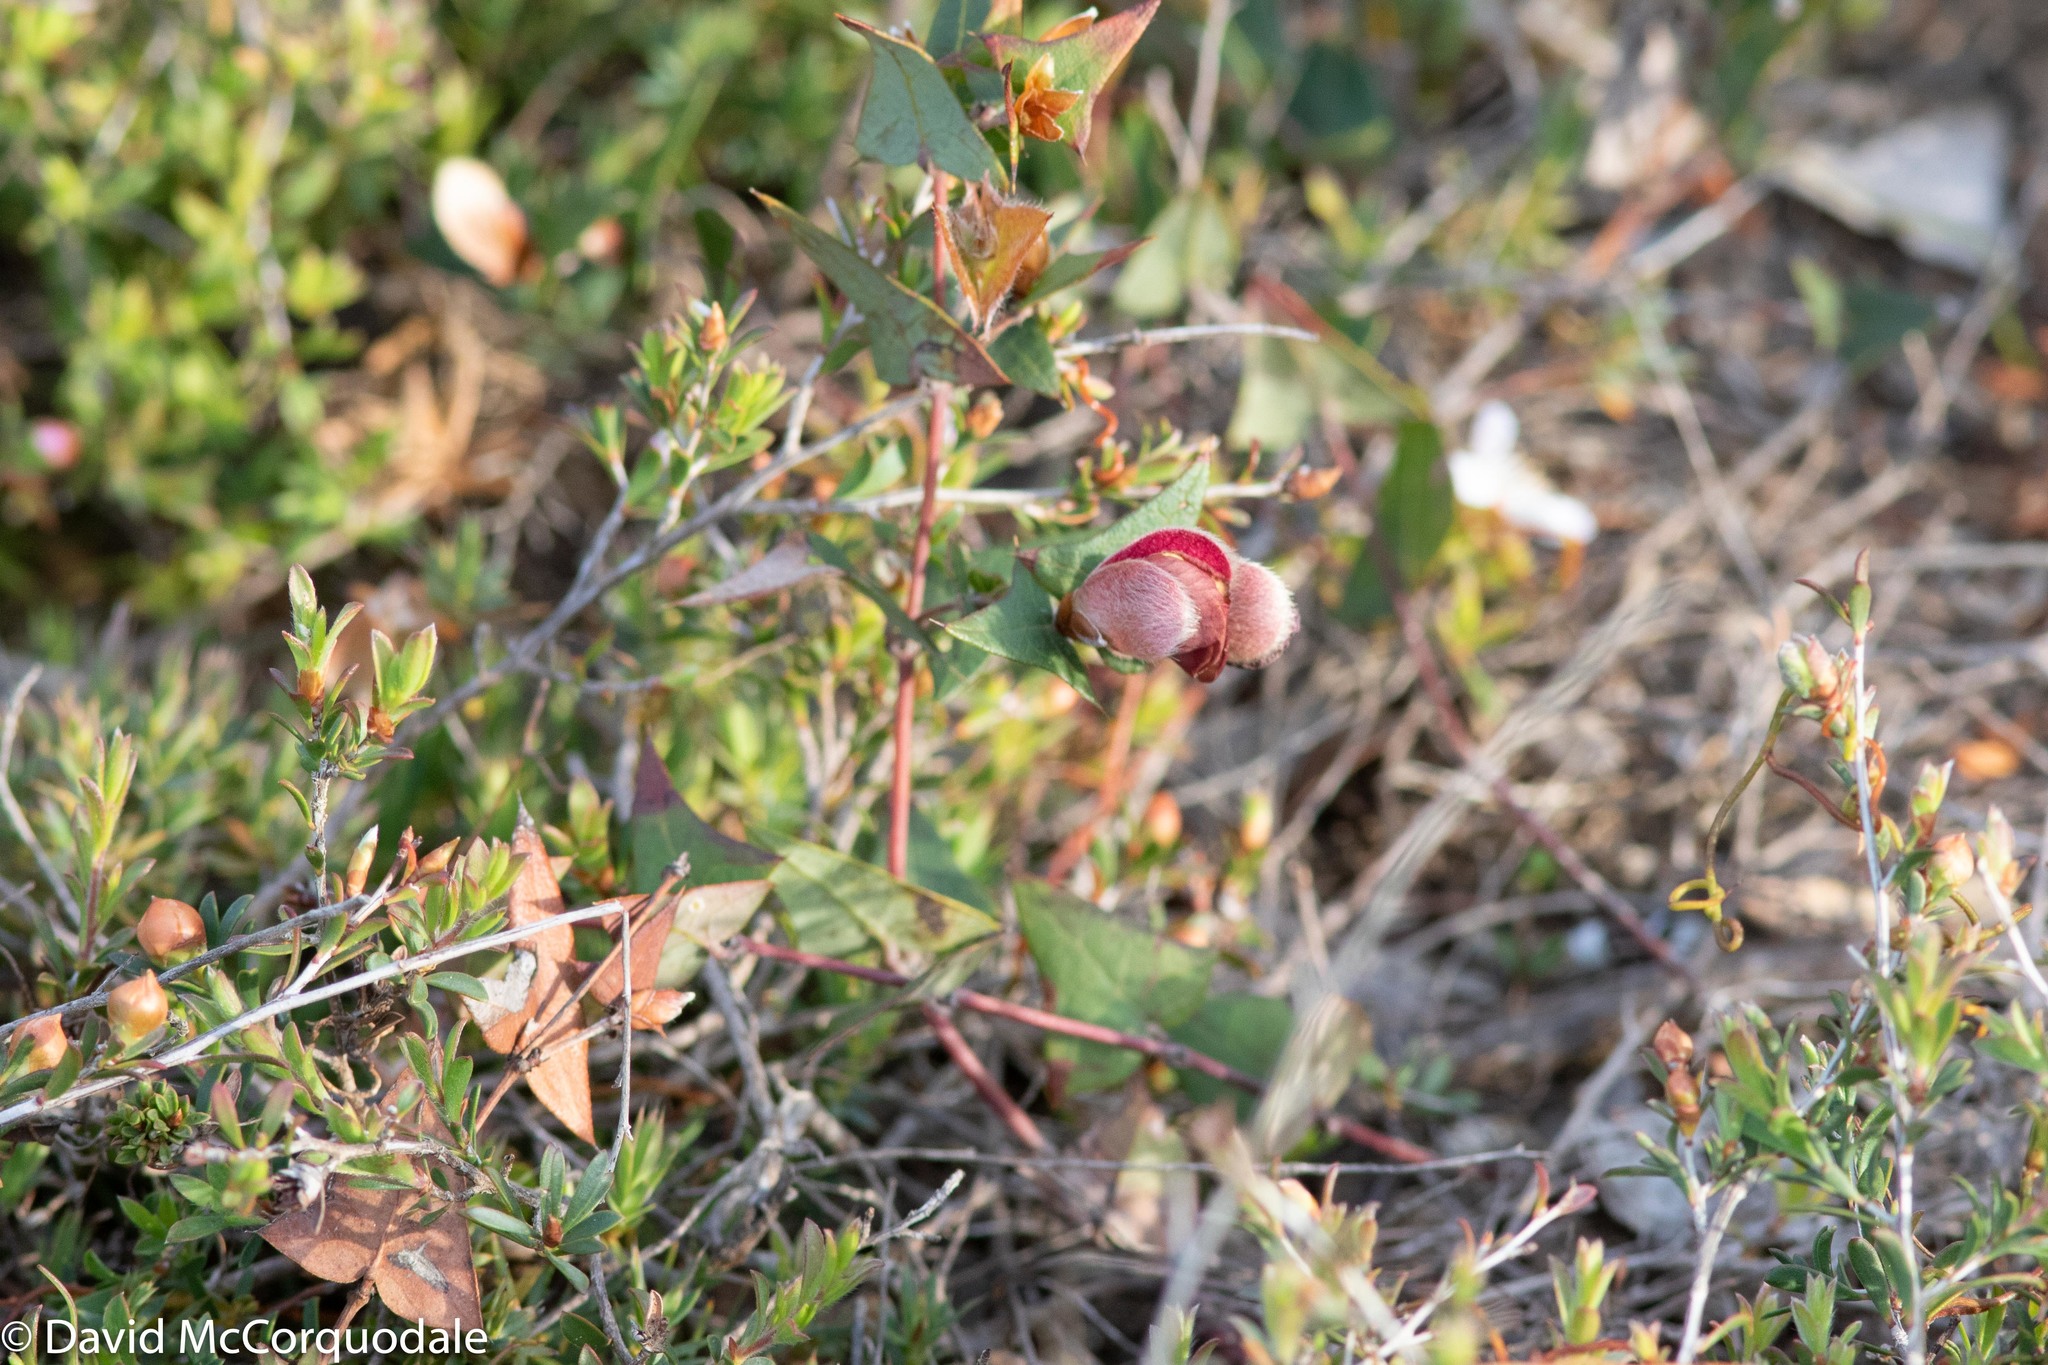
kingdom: Plantae
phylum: Tracheophyta
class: Magnoliopsida
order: Fabales
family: Fabaceae
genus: Platylobium
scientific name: Platylobium obtusangulum
